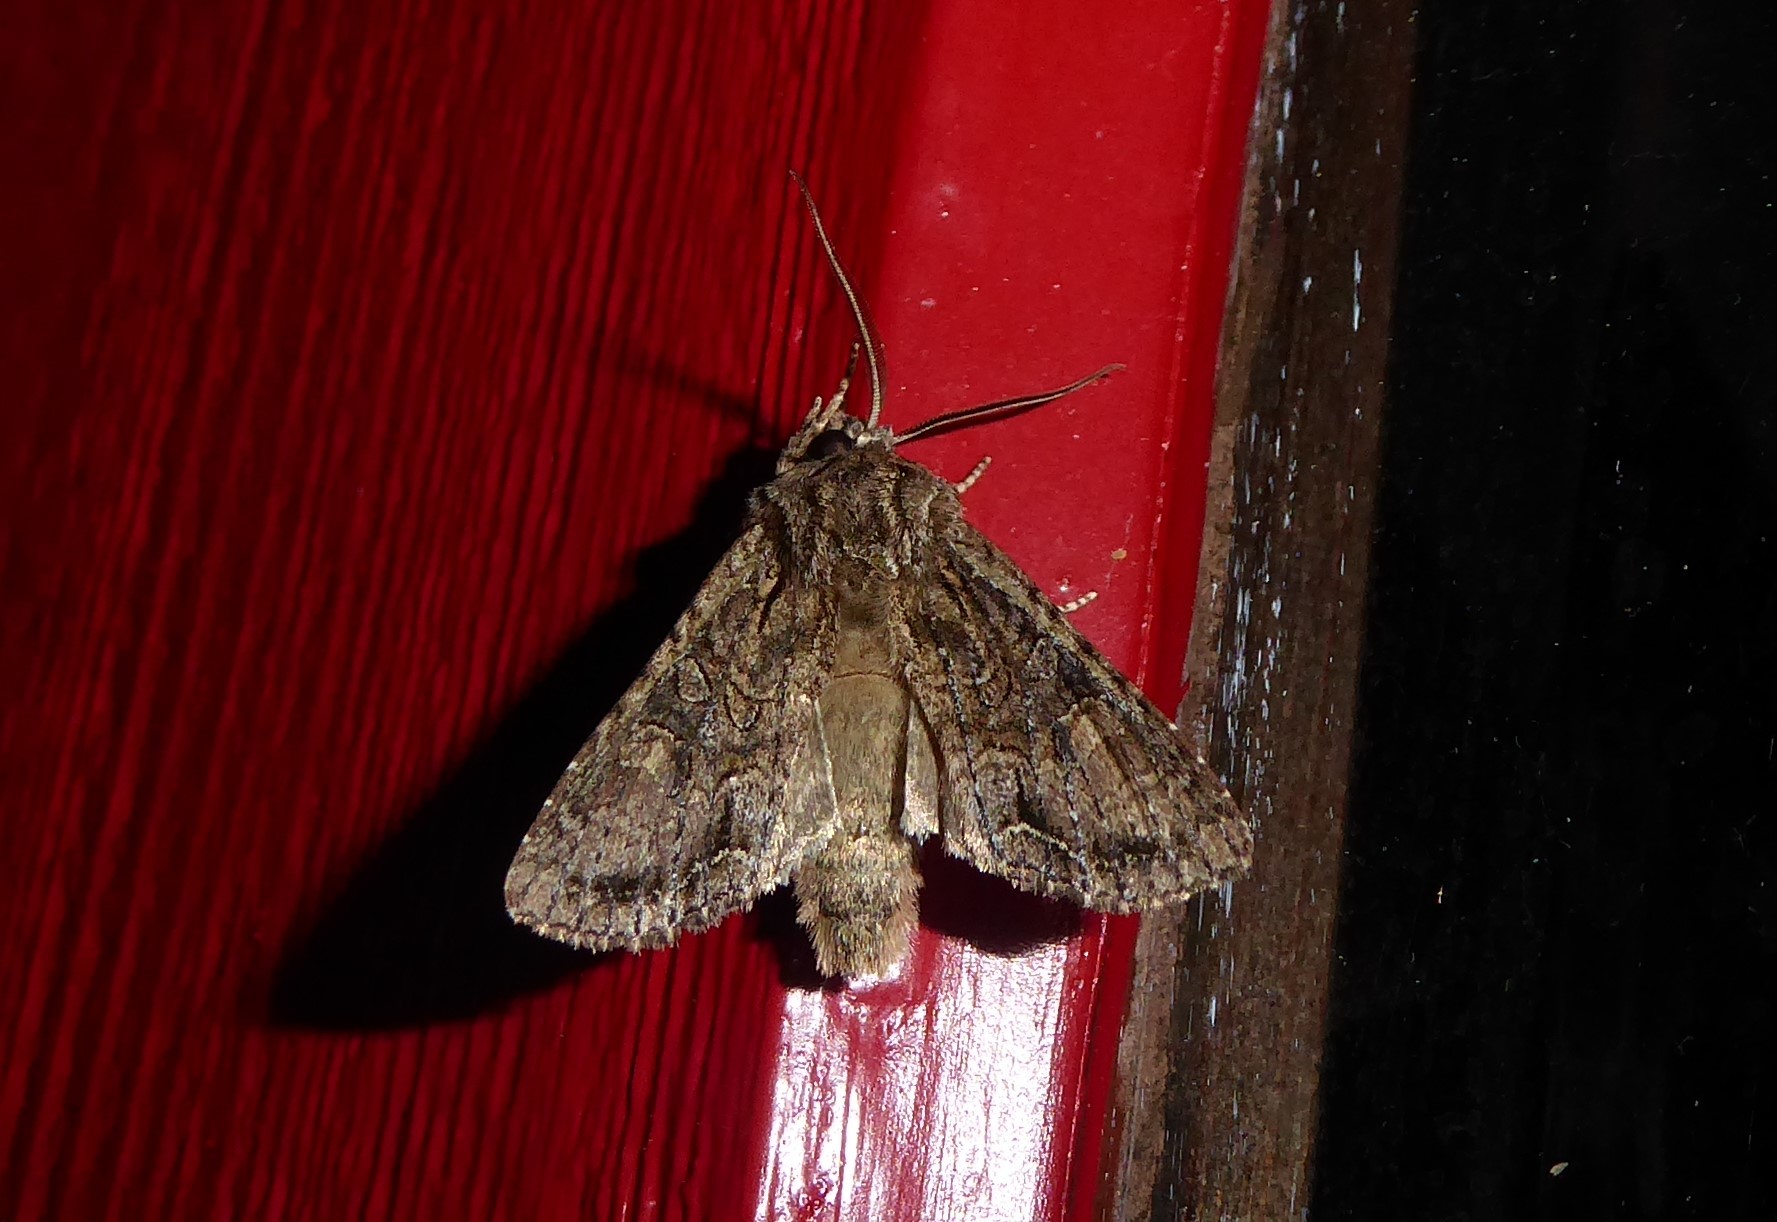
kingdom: Animalia
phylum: Arthropoda
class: Insecta
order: Lepidoptera
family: Noctuidae
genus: Ichneutica
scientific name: Ichneutica mutans
